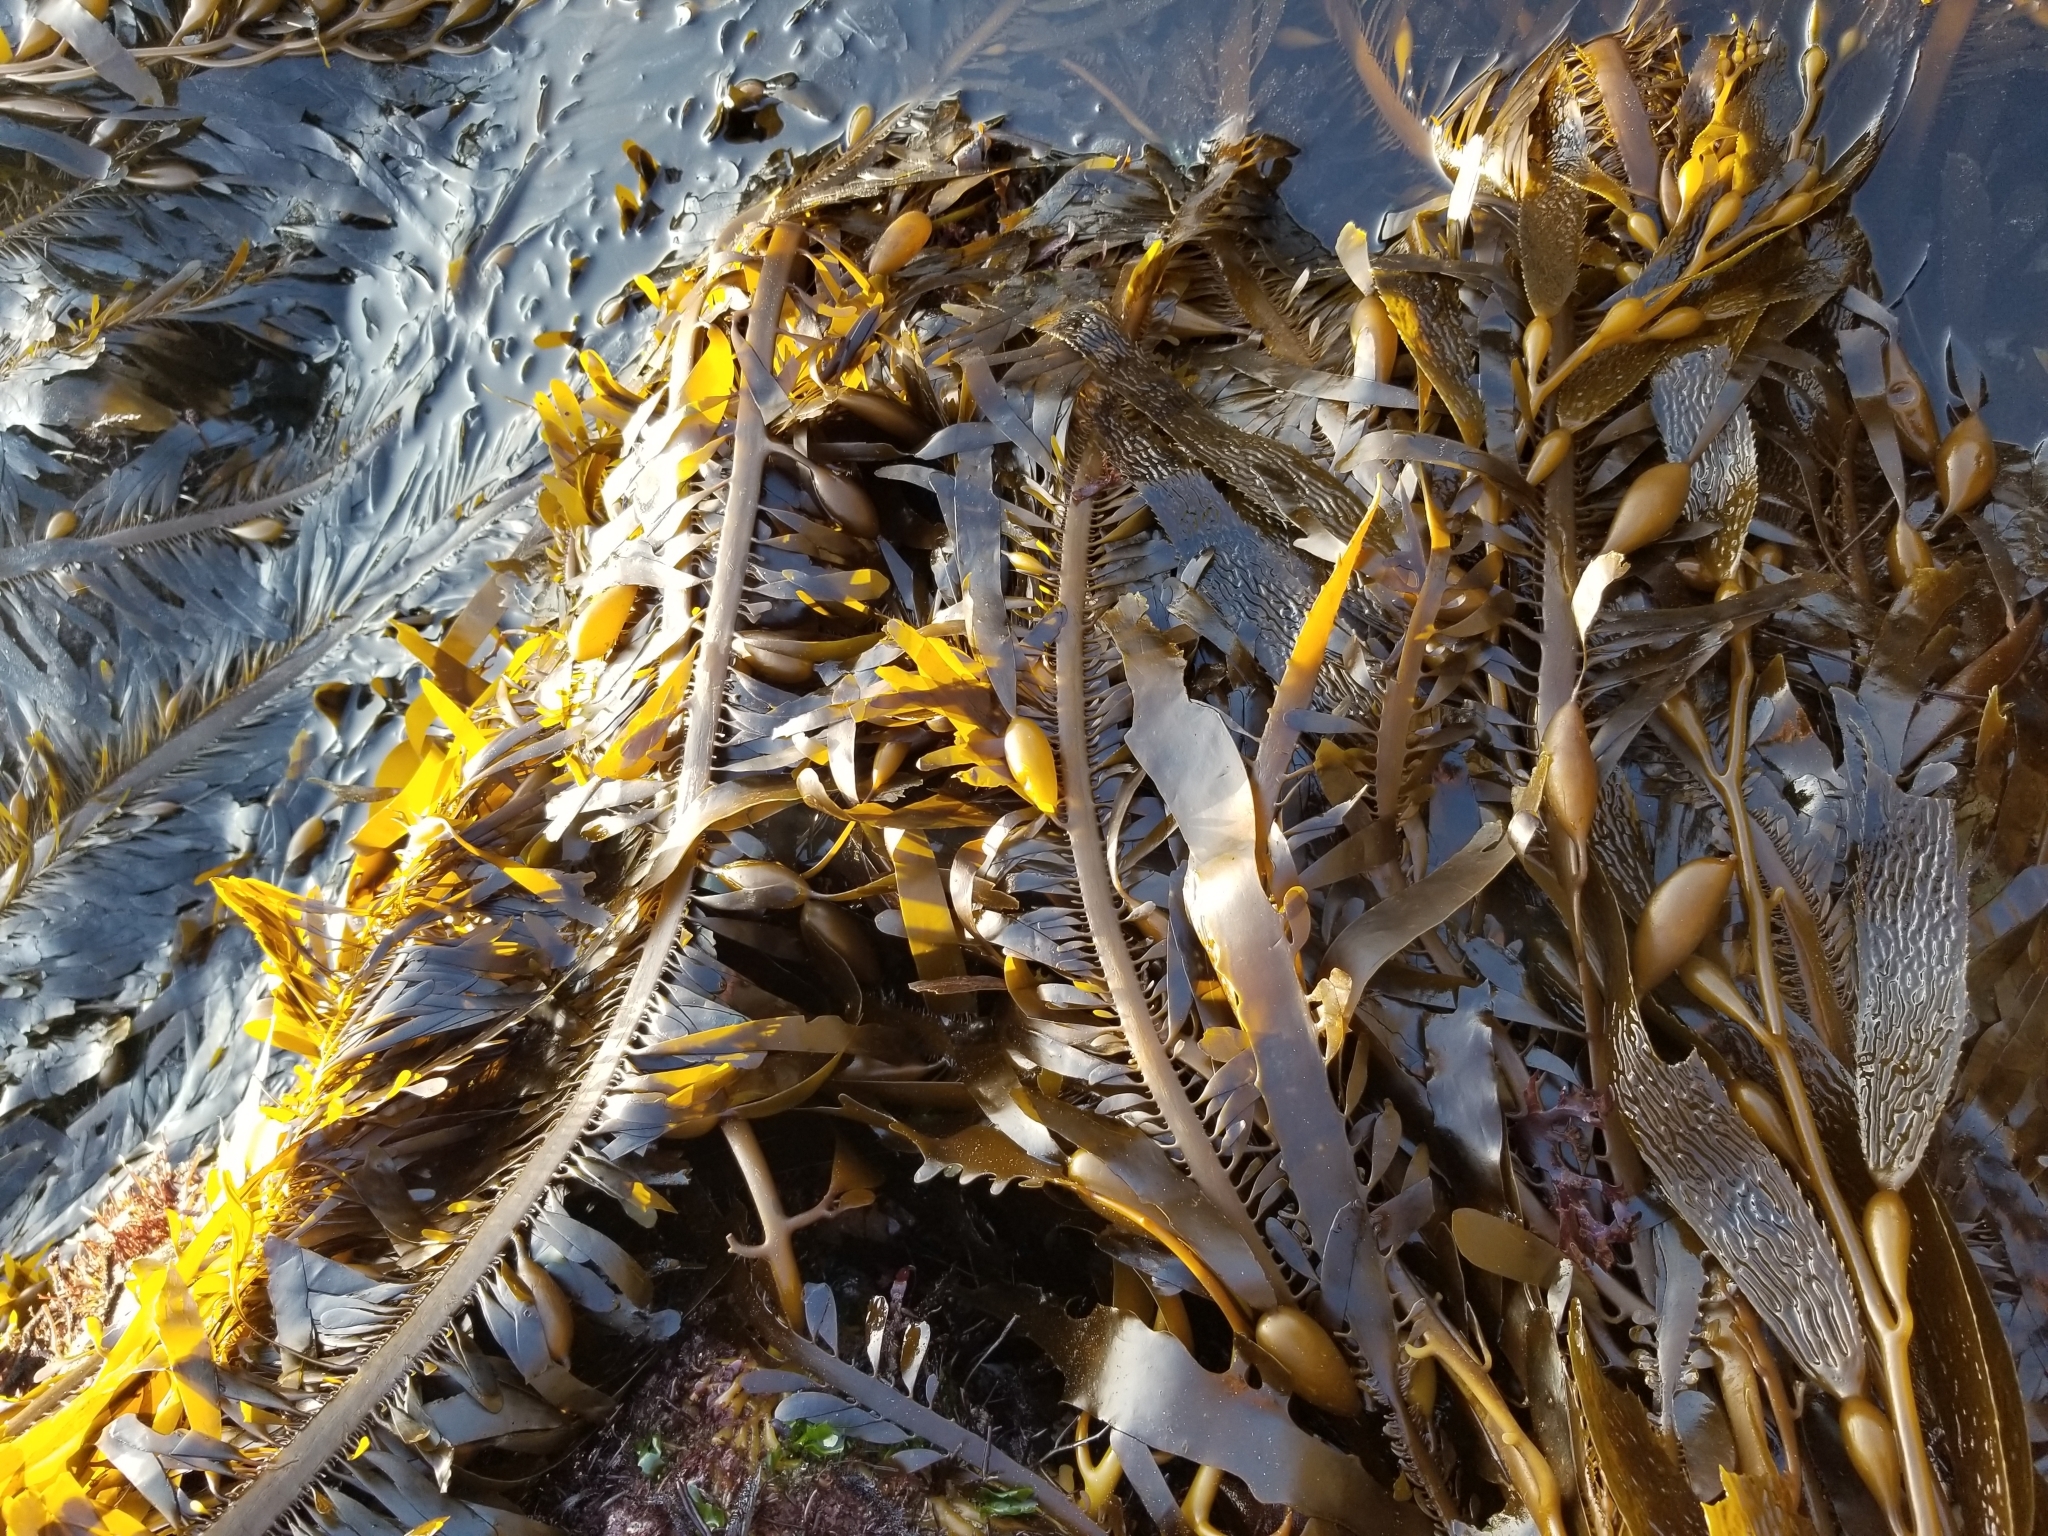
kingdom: Chromista
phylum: Ochrophyta
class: Phaeophyceae
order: Laminariales
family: Lessoniaceae
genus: Egregia
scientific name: Egregia menziesii
